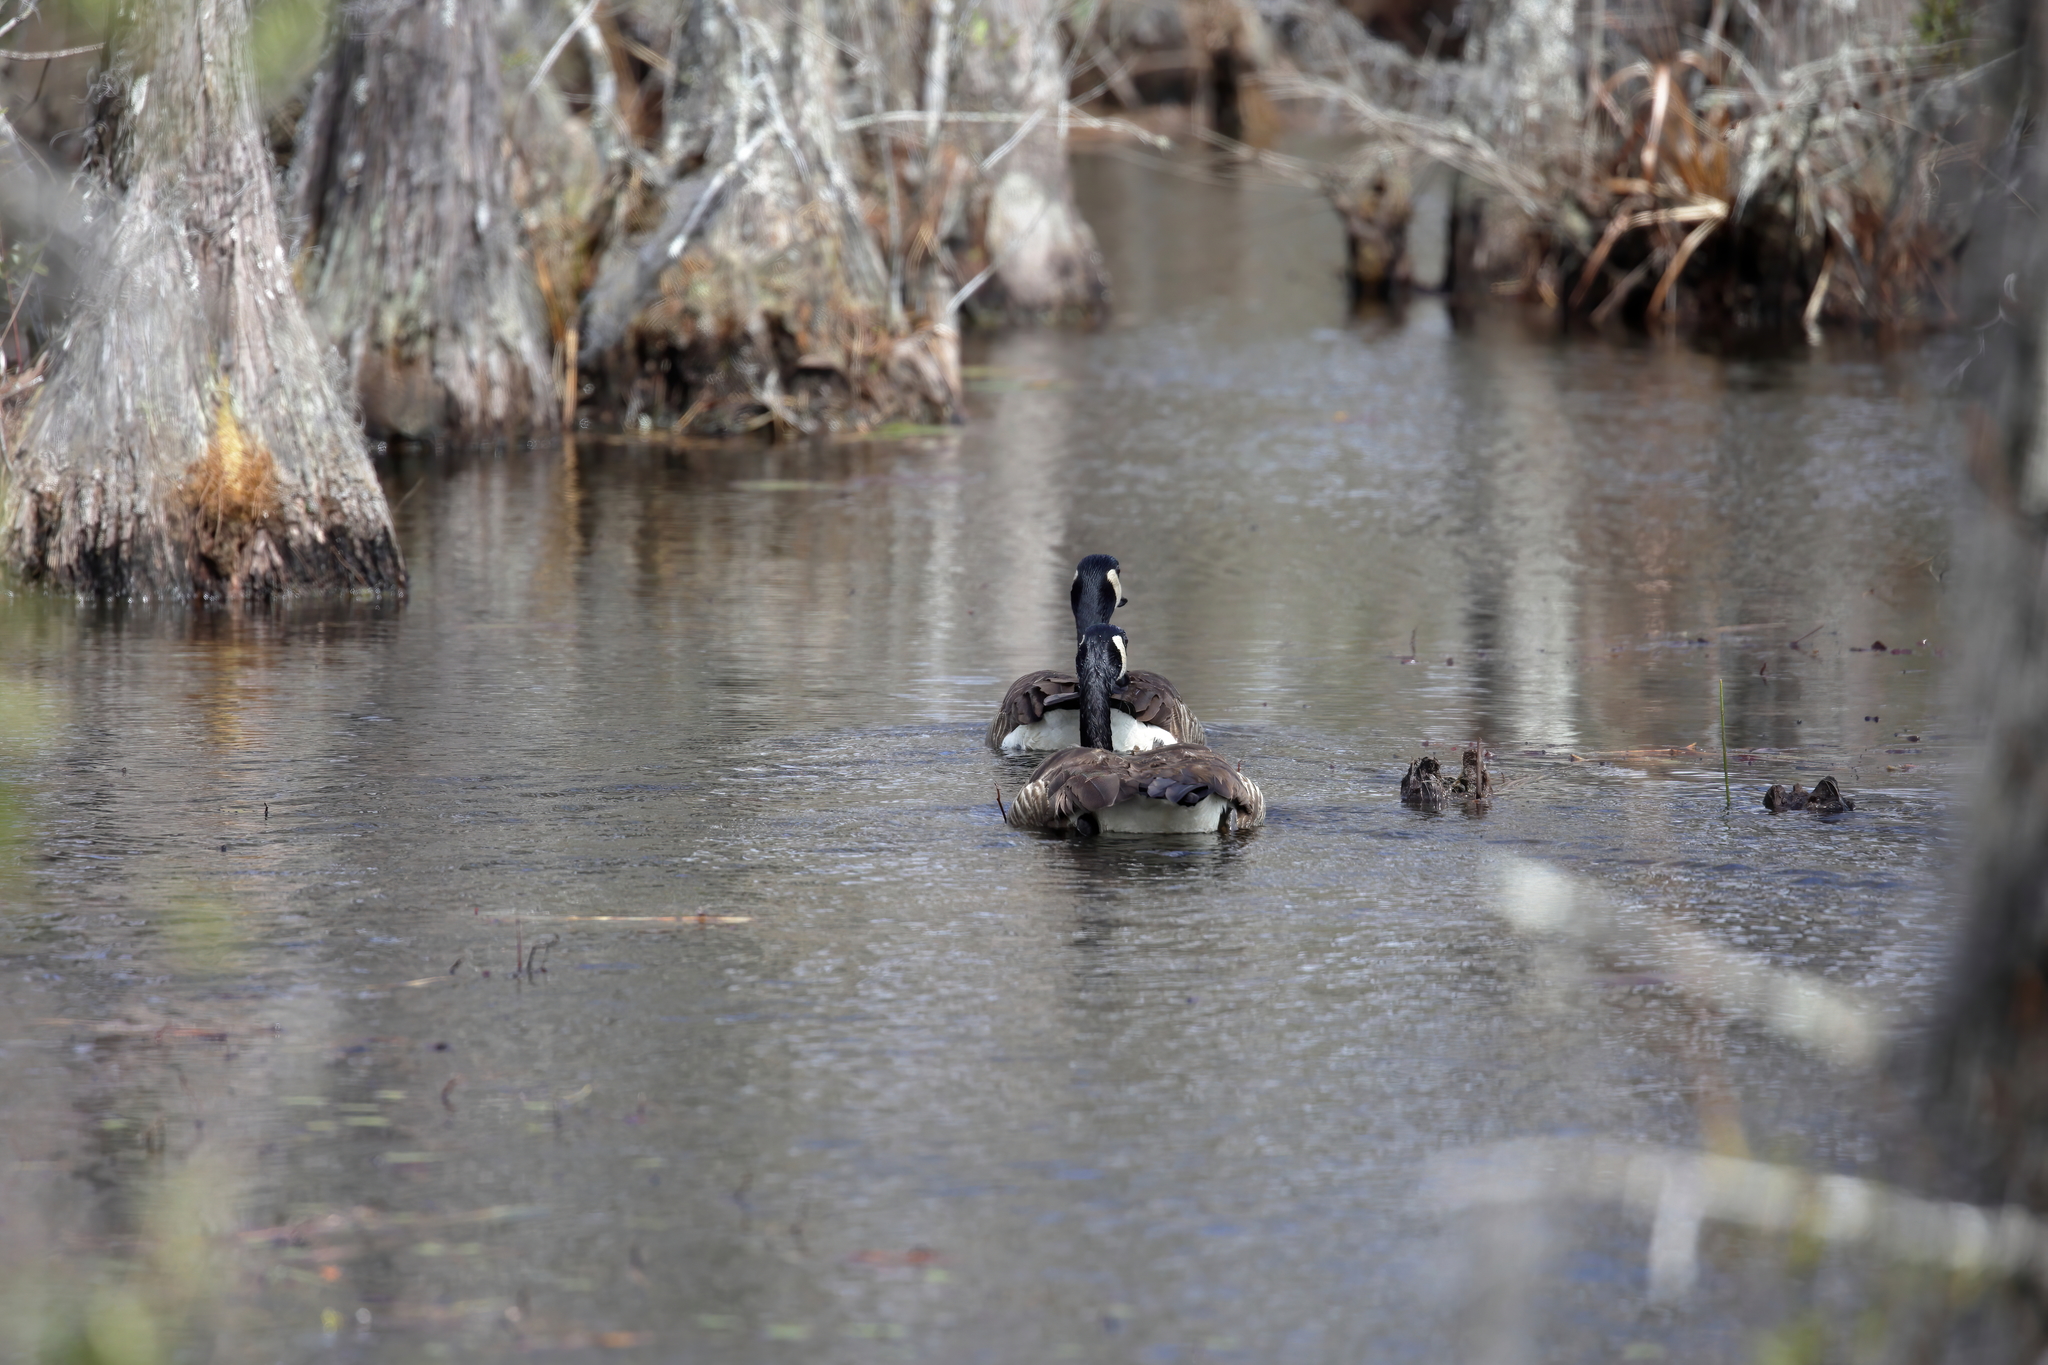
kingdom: Animalia
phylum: Chordata
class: Aves
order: Anseriformes
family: Anatidae
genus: Branta
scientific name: Branta canadensis
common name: Canada goose
